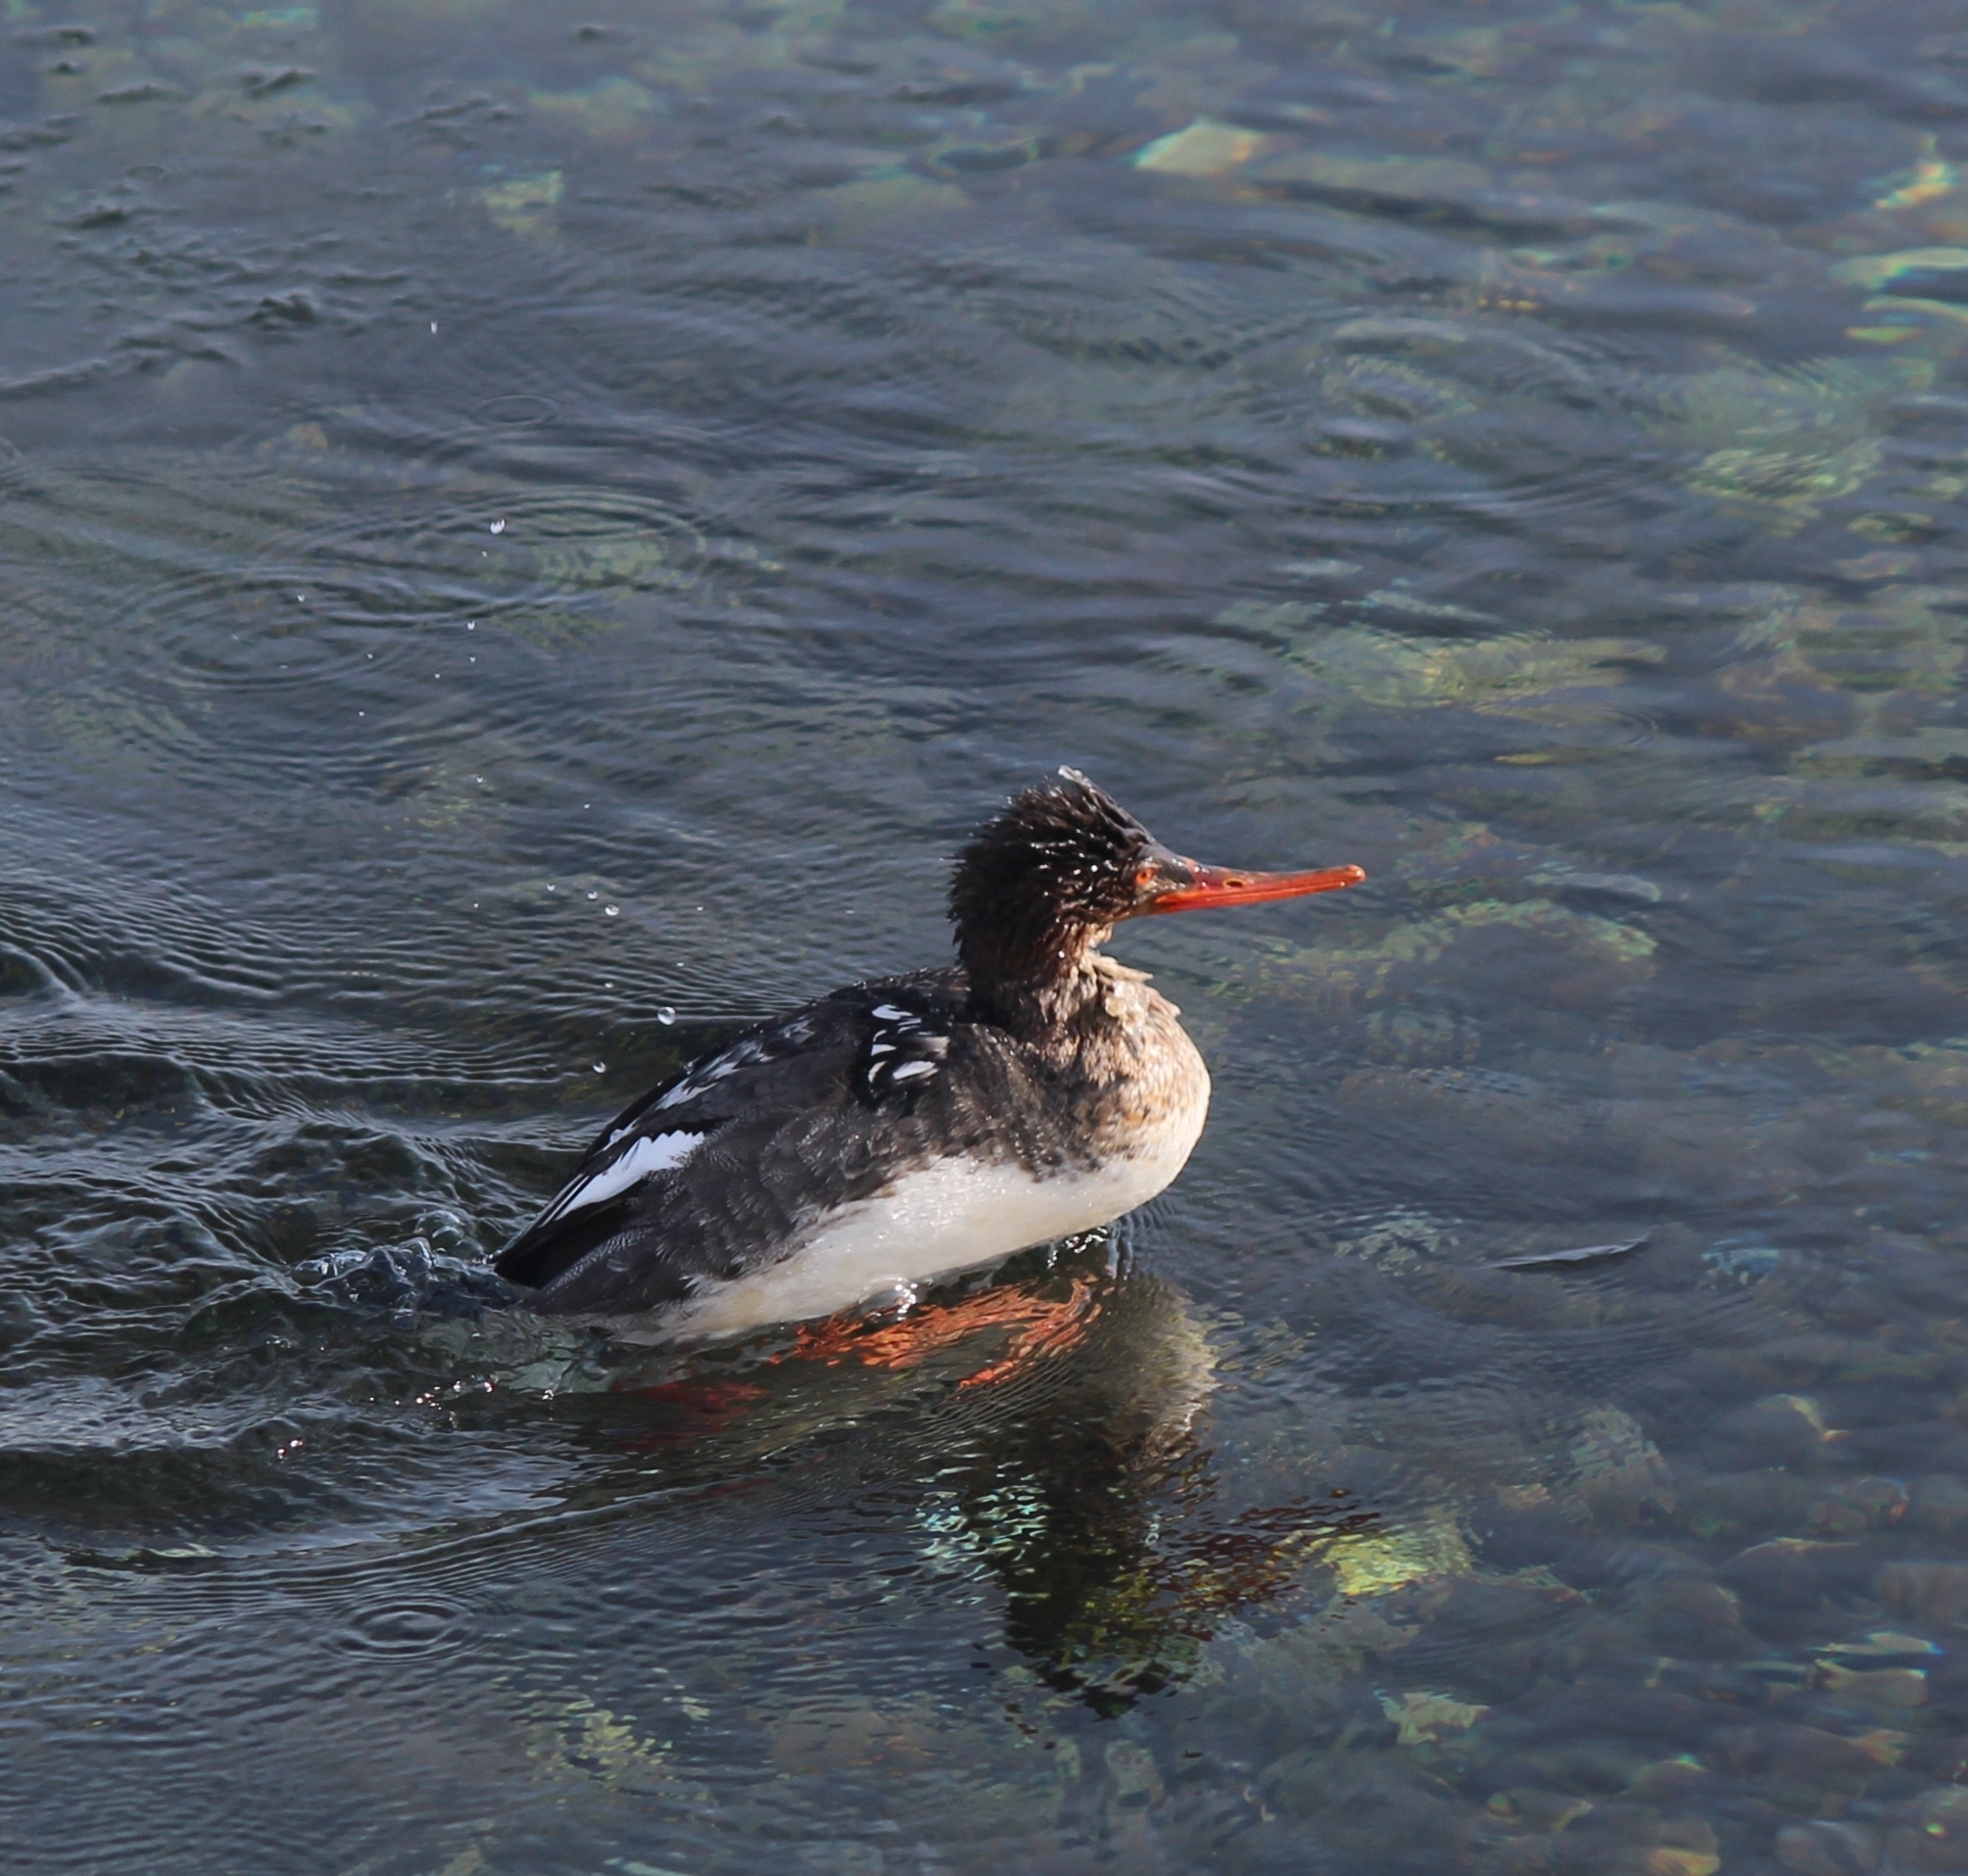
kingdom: Animalia
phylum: Chordata
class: Aves
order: Anseriformes
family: Anatidae
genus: Mergus
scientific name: Mergus serrator
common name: Red-breasted merganser
